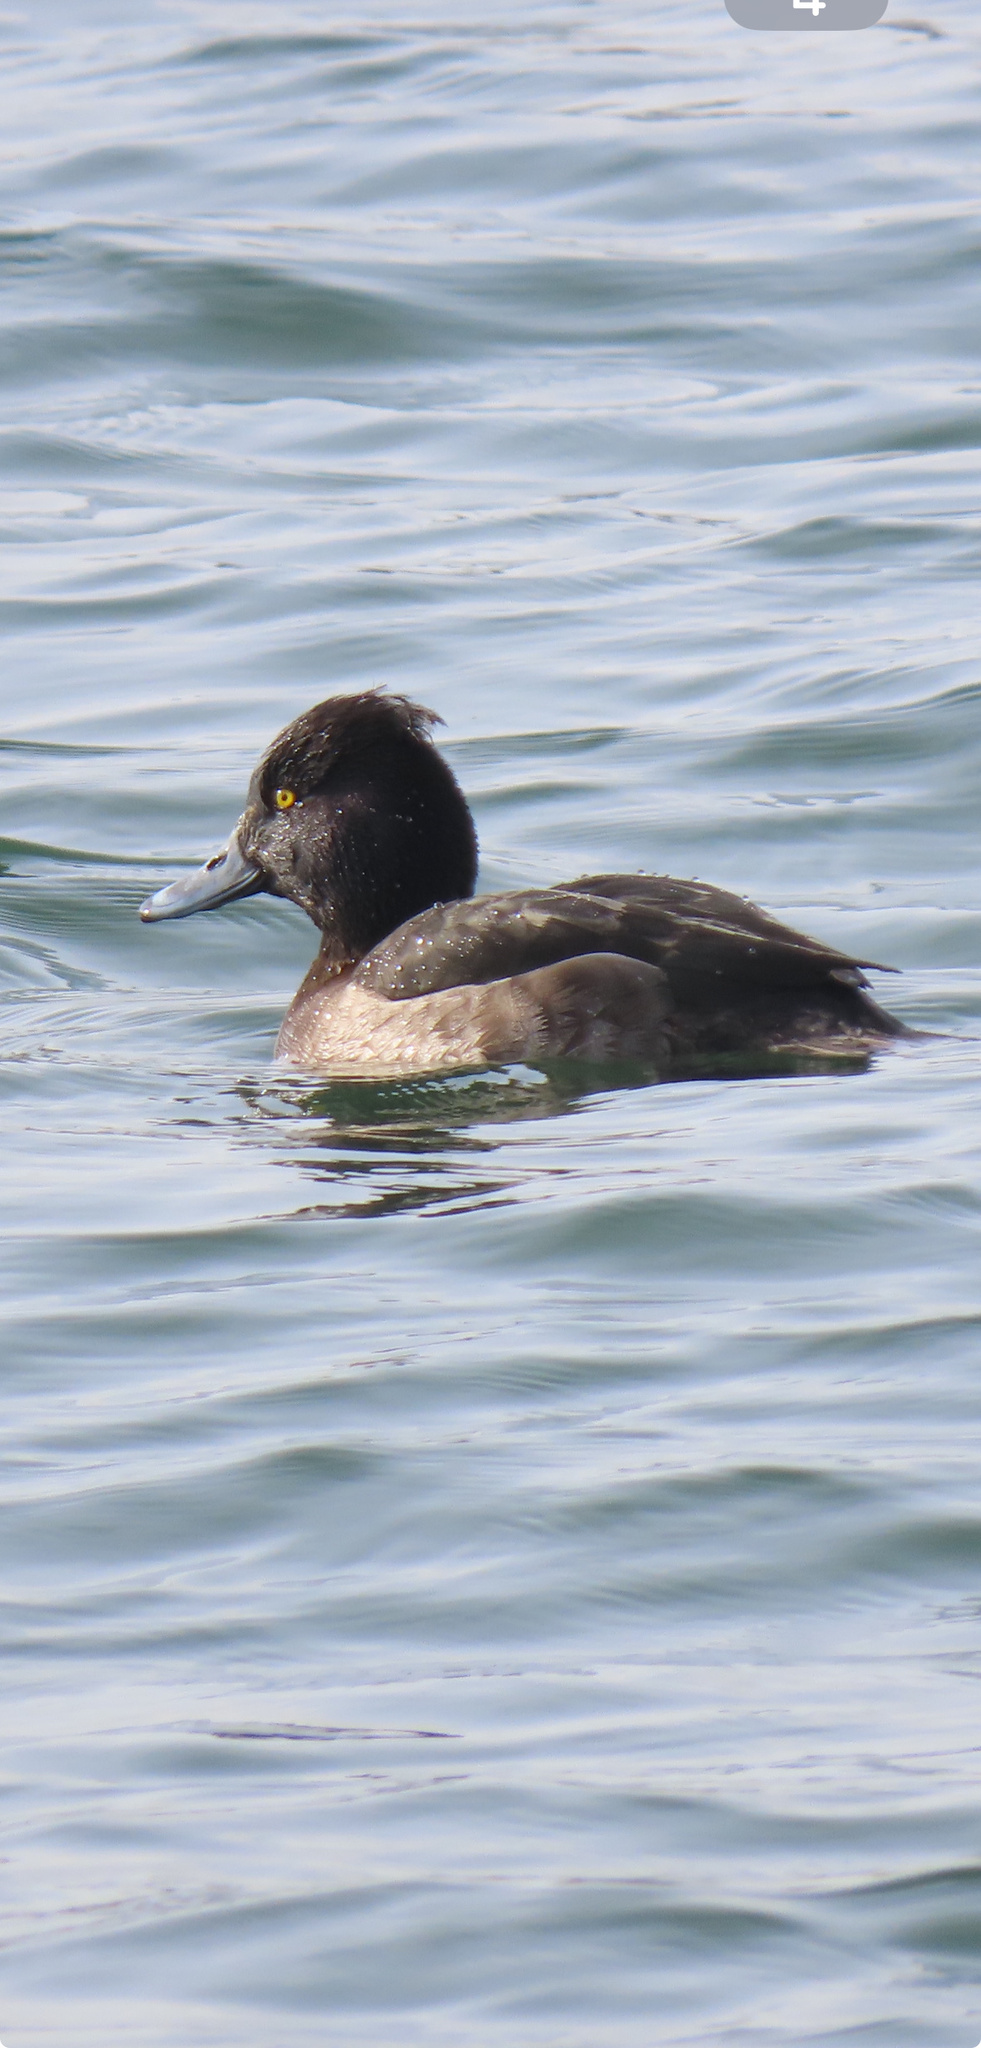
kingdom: Animalia
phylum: Chordata
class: Aves
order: Anseriformes
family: Anatidae
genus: Aythya
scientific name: Aythya fuligula
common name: Tufted duck
